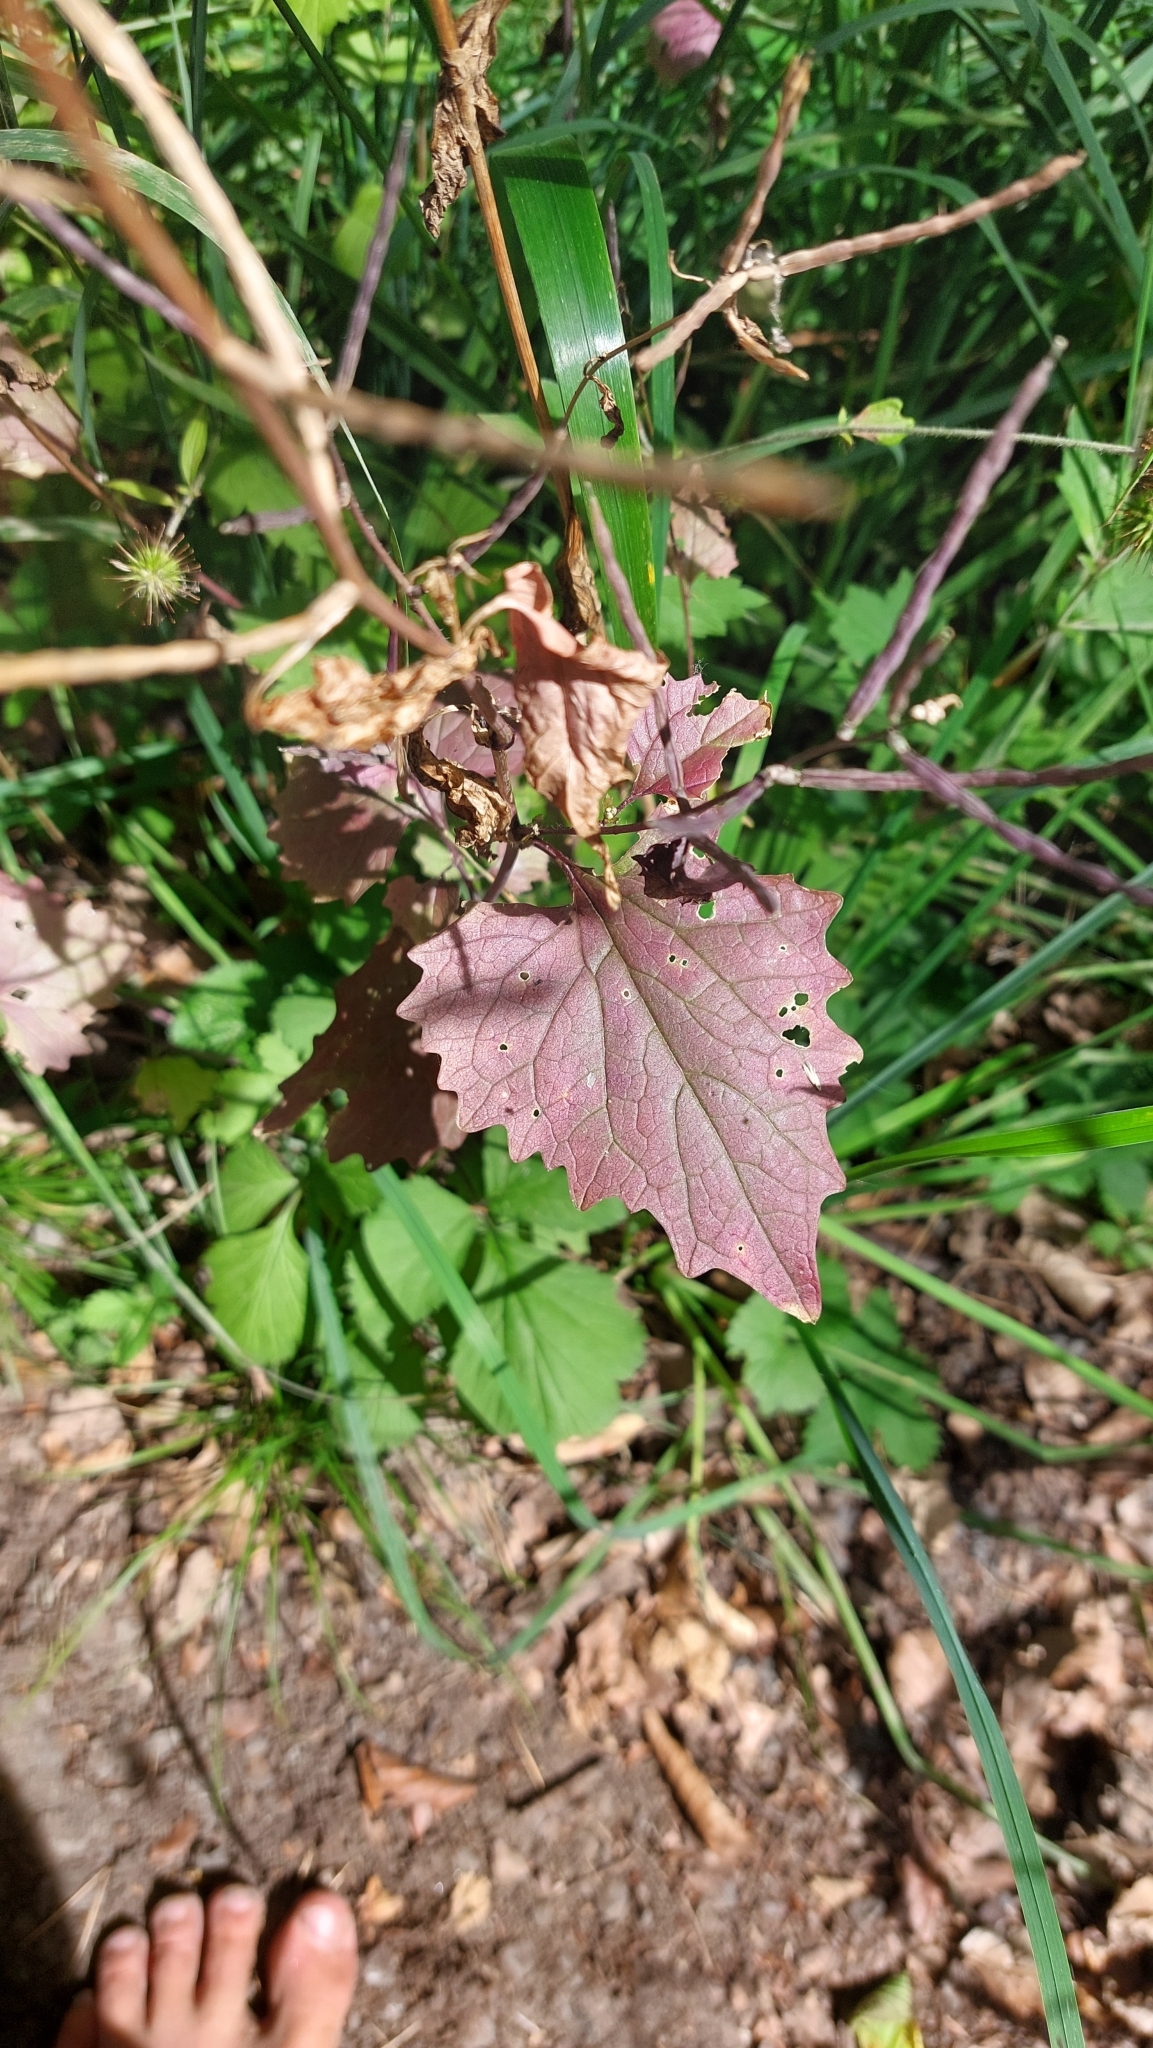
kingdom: Plantae
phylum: Tracheophyta
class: Magnoliopsida
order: Brassicales
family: Brassicaceae
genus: Alliaria
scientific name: Alliaria petiolata
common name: Garlic mustard
